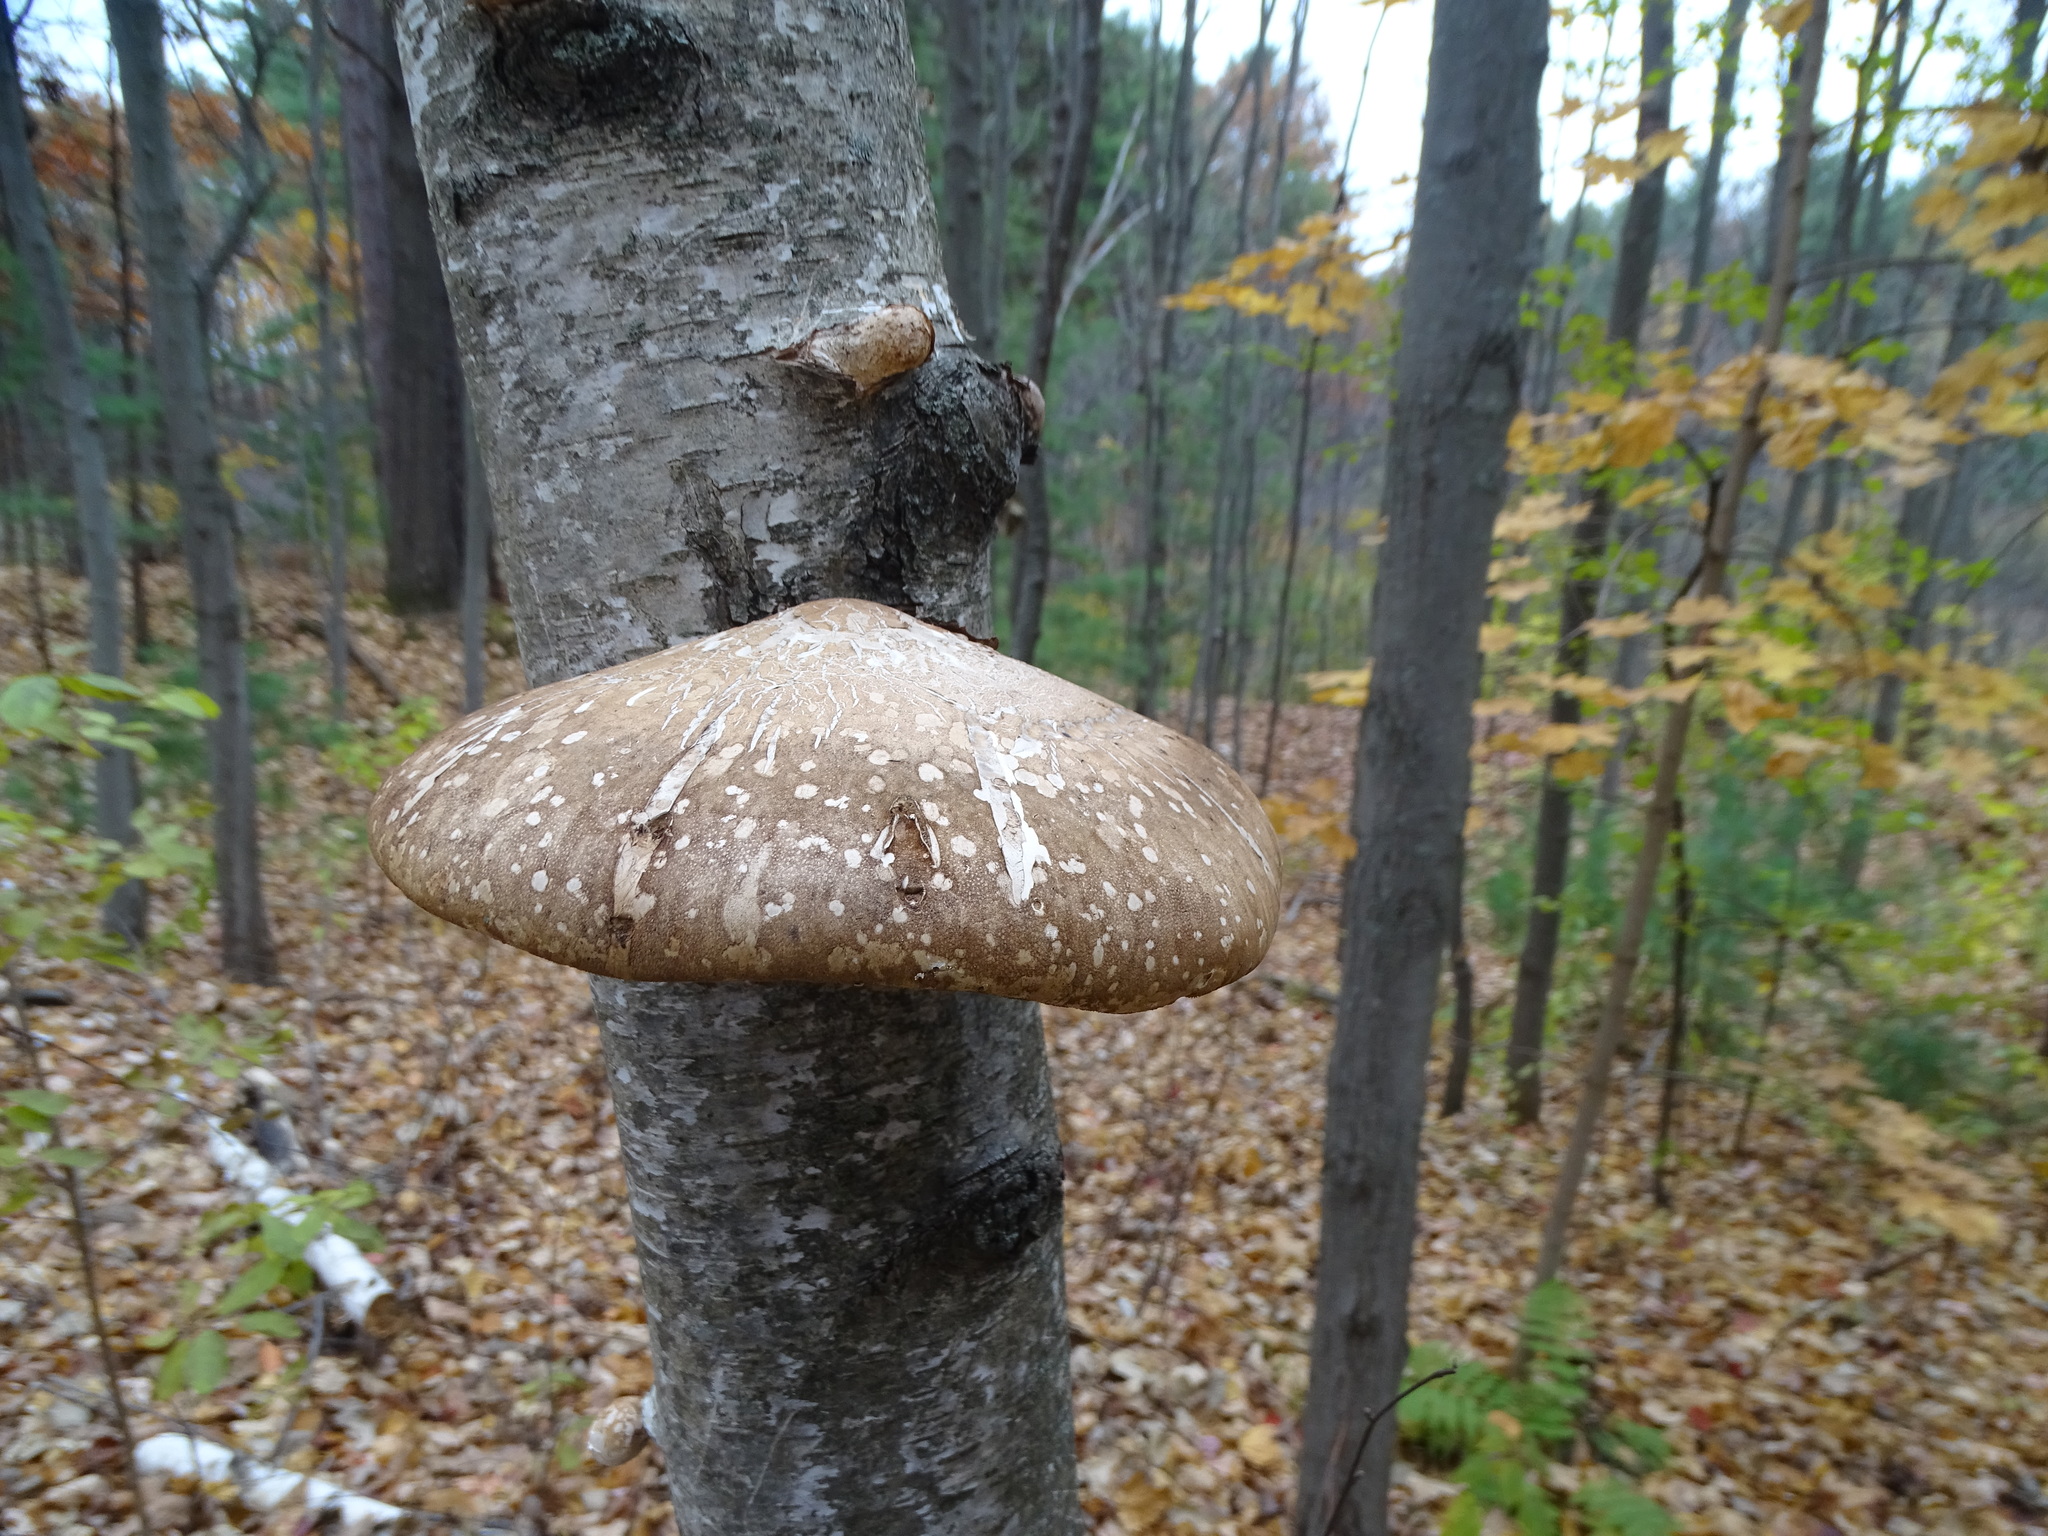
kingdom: Fungi
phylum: Basidiomycota
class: Agaricomycetes
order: Polyporales
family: Fomitopsidaceae
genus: Fomitopsis
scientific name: Fomitopsis betulina
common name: Birch polypore
